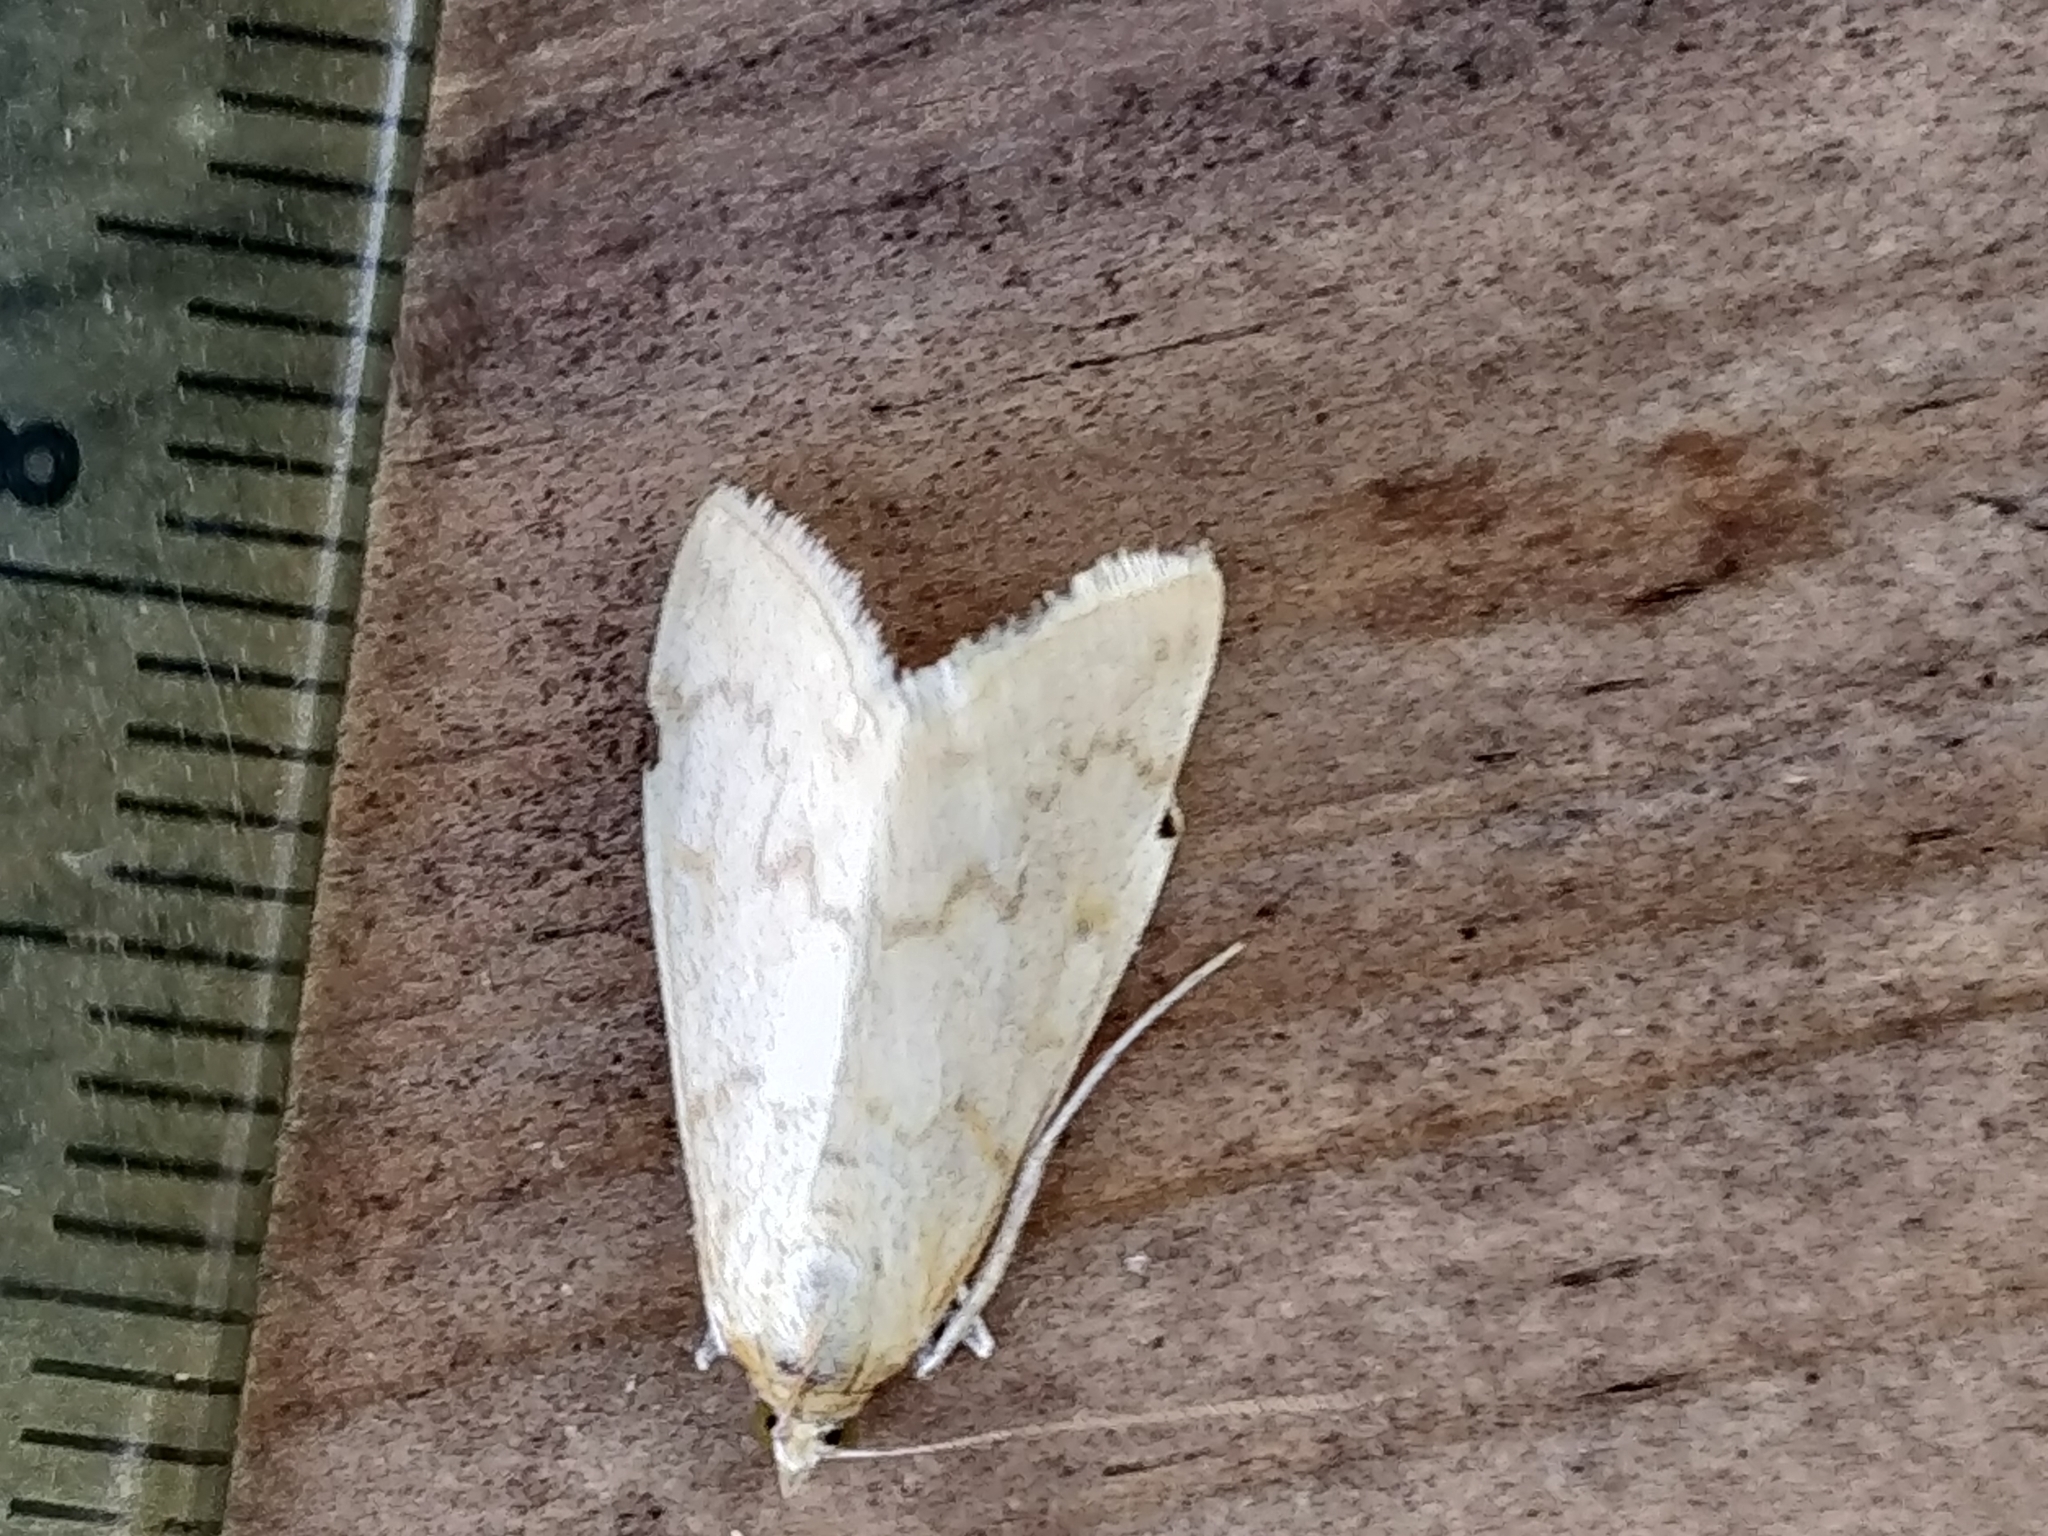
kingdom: Animalia
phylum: Arthropoda
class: Insecta
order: Lepidoptera
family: Crambidae
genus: Hahncappsia
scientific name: Hahncappsia pergilvalis
